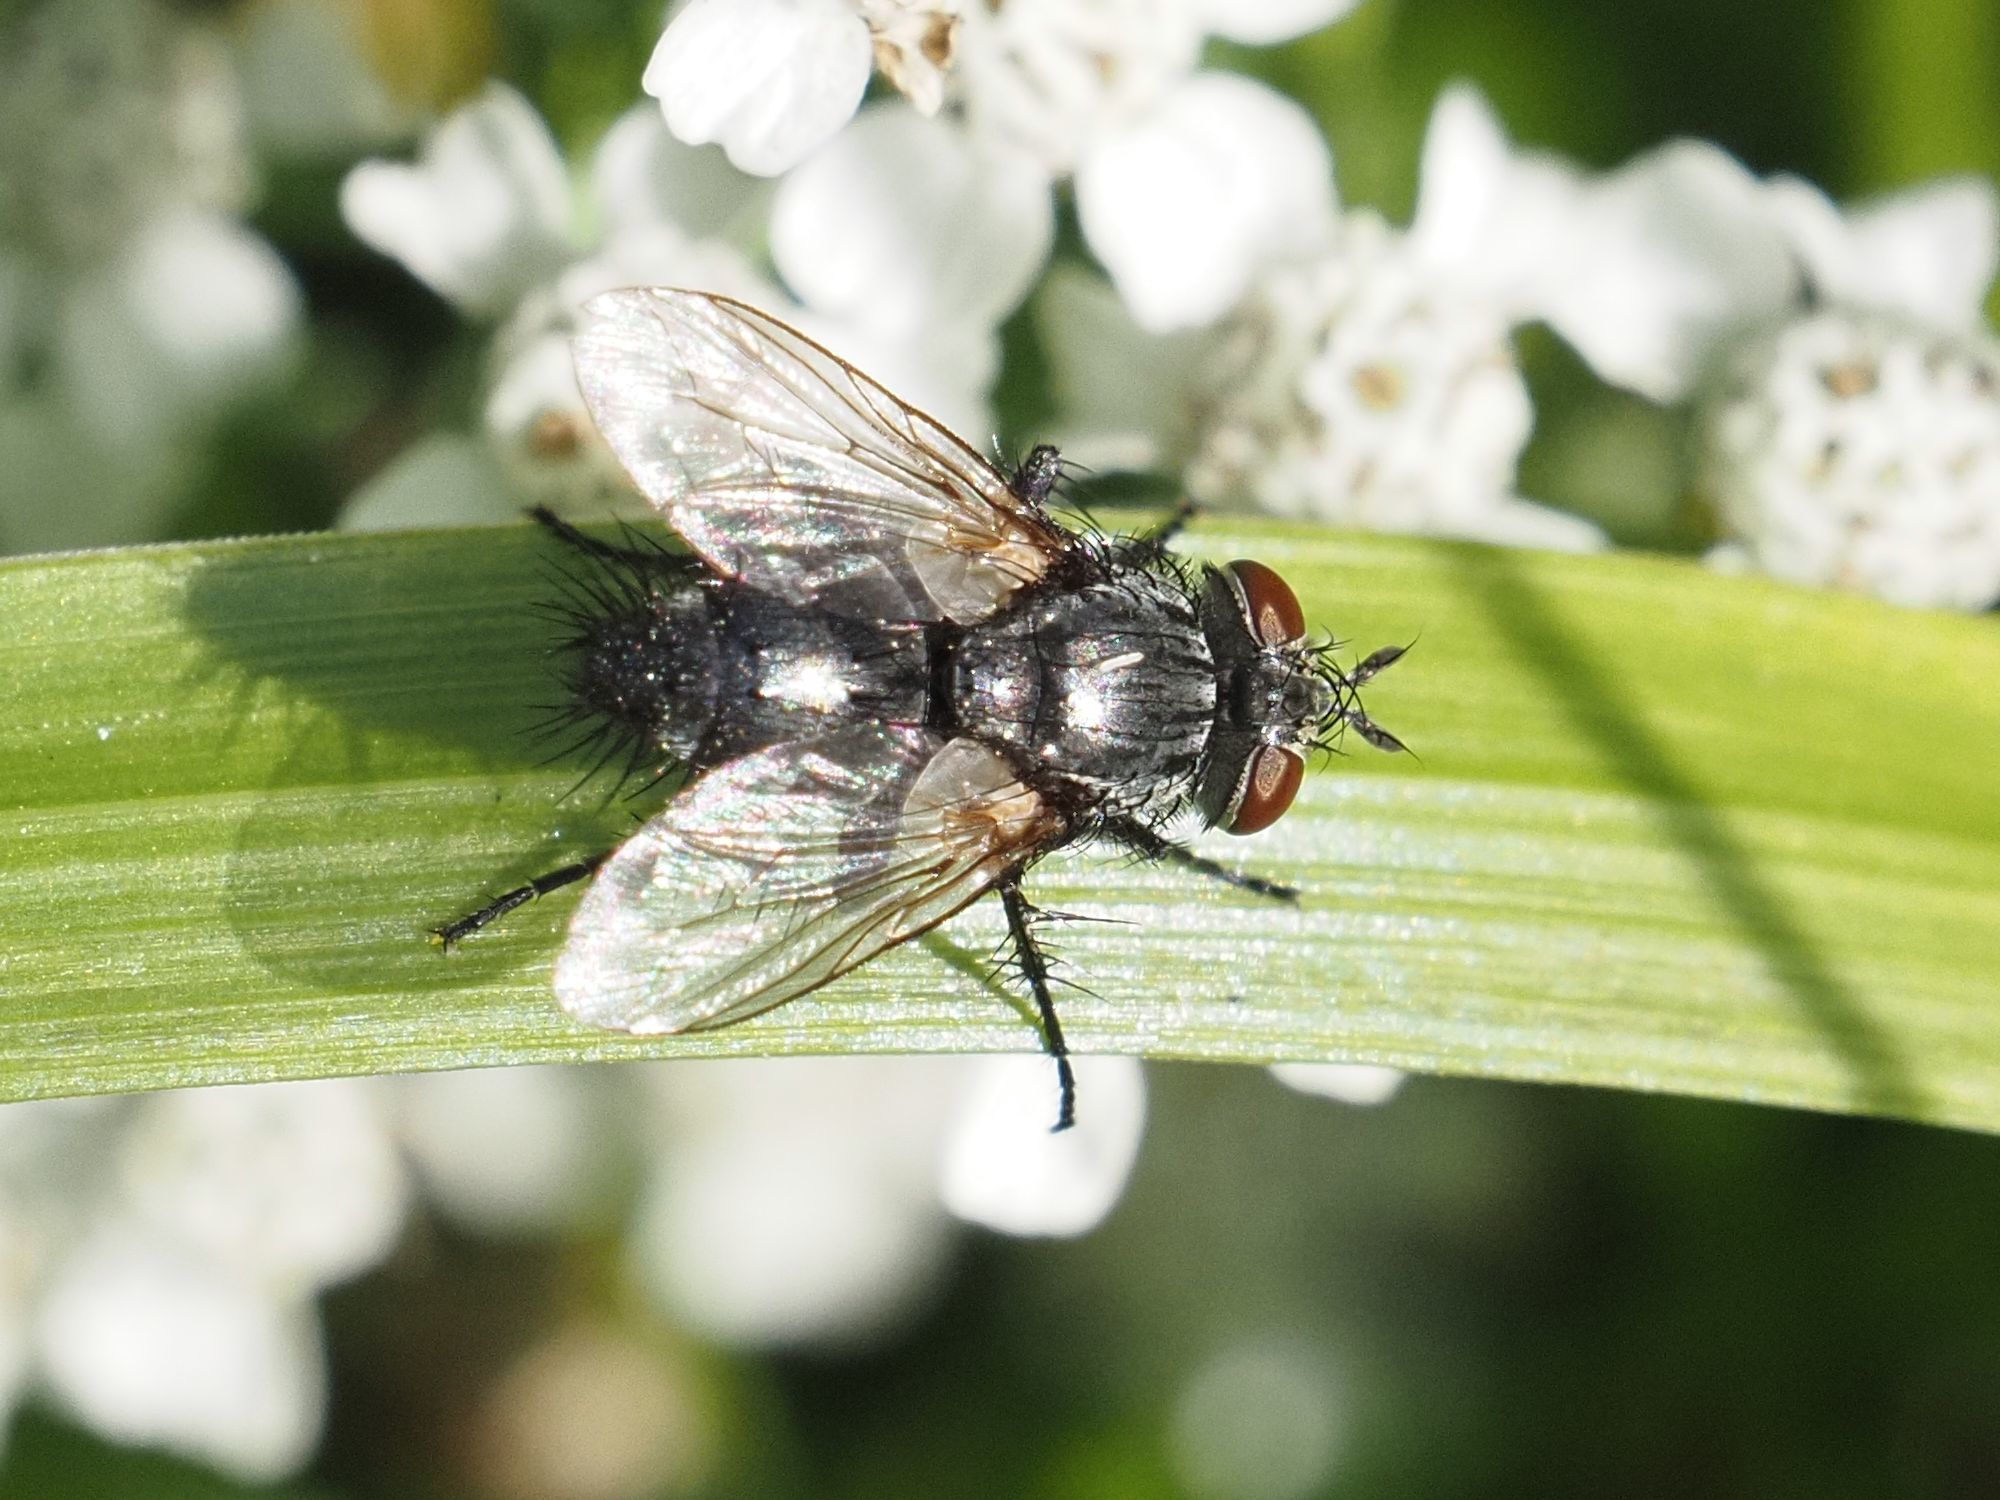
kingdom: Animalia
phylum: Arthropoda
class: Insecta
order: Diptera
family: Tachinidae
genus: Voria
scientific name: Voria ruralis
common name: Parasitic fly
